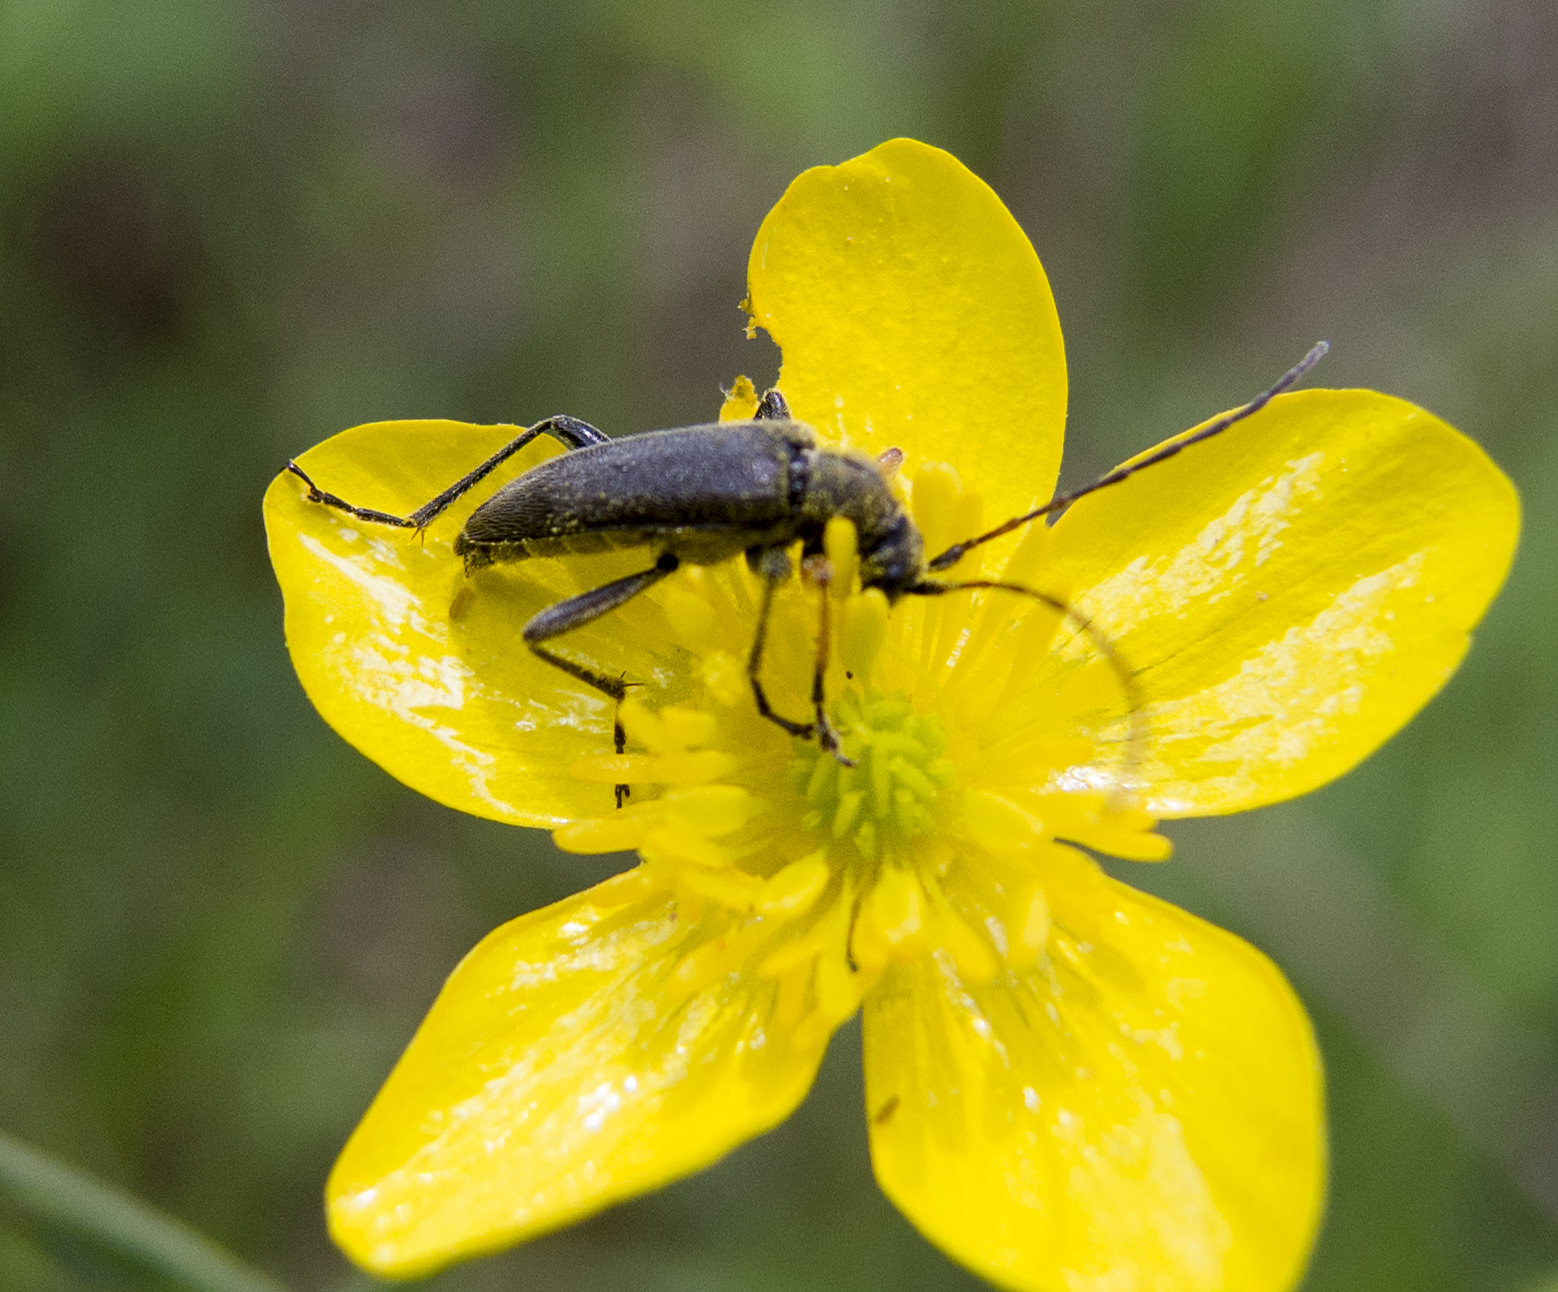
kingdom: Animalia
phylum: Arthropoda
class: Insecta
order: Coleoptera
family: Cerambycidae
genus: Cortodera
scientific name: Cortodera flavimana
